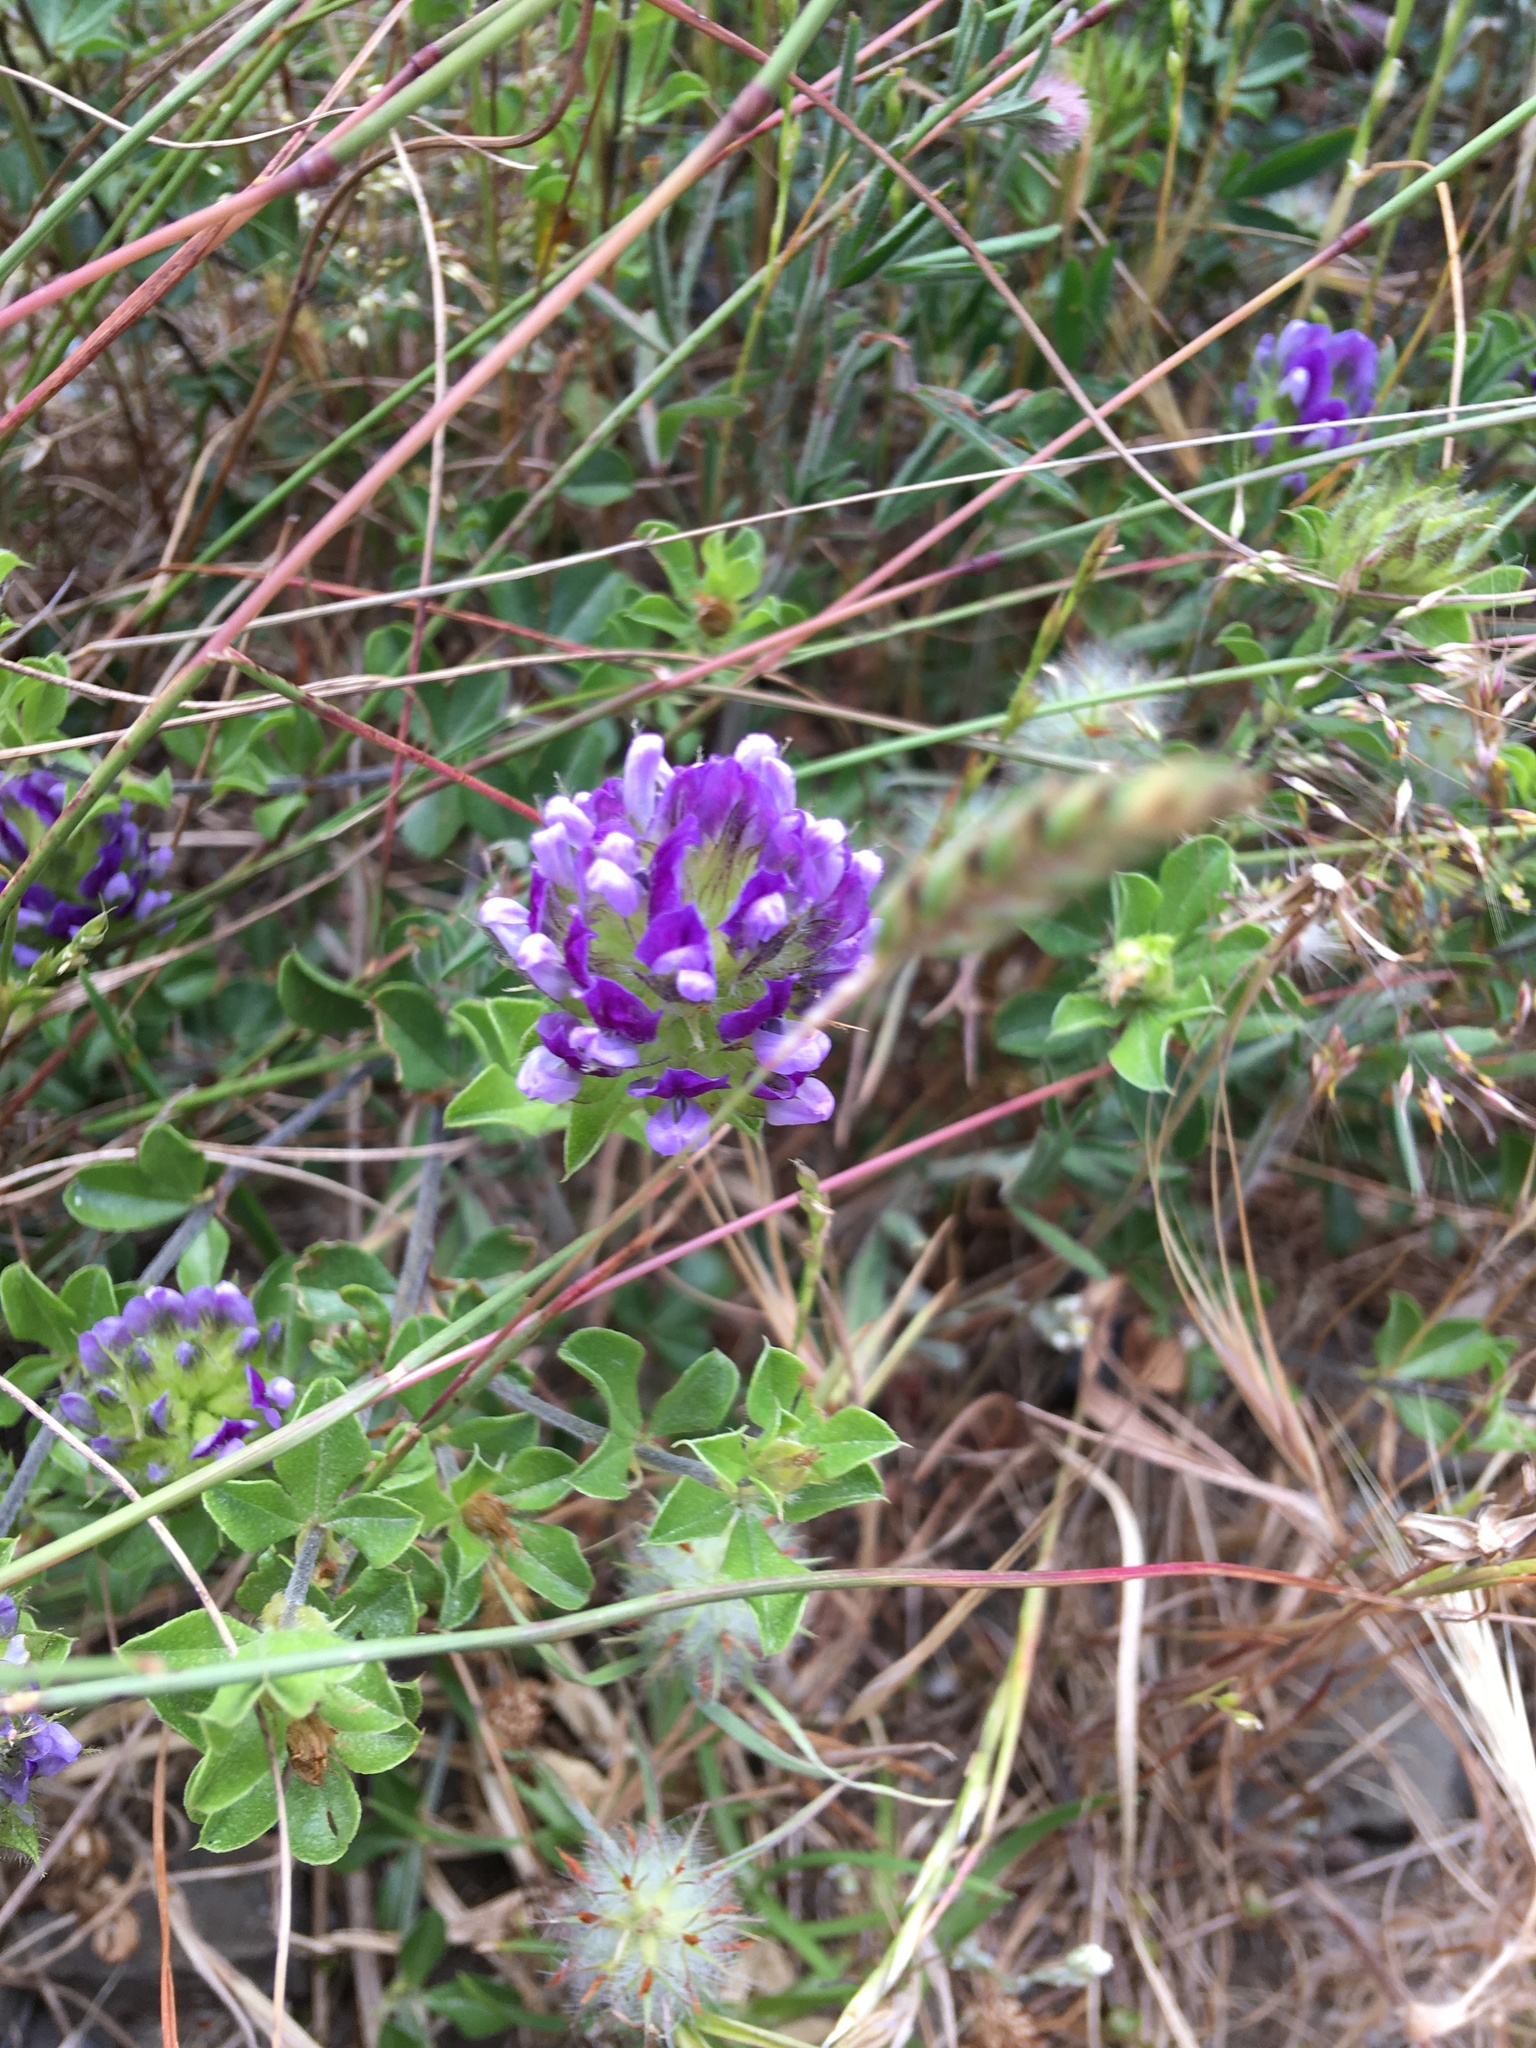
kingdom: Plantae
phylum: Tracheophyta
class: Magnoliopsida
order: Fabales
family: Fabaceae
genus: Psoralea
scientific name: Psoralea fruticans
